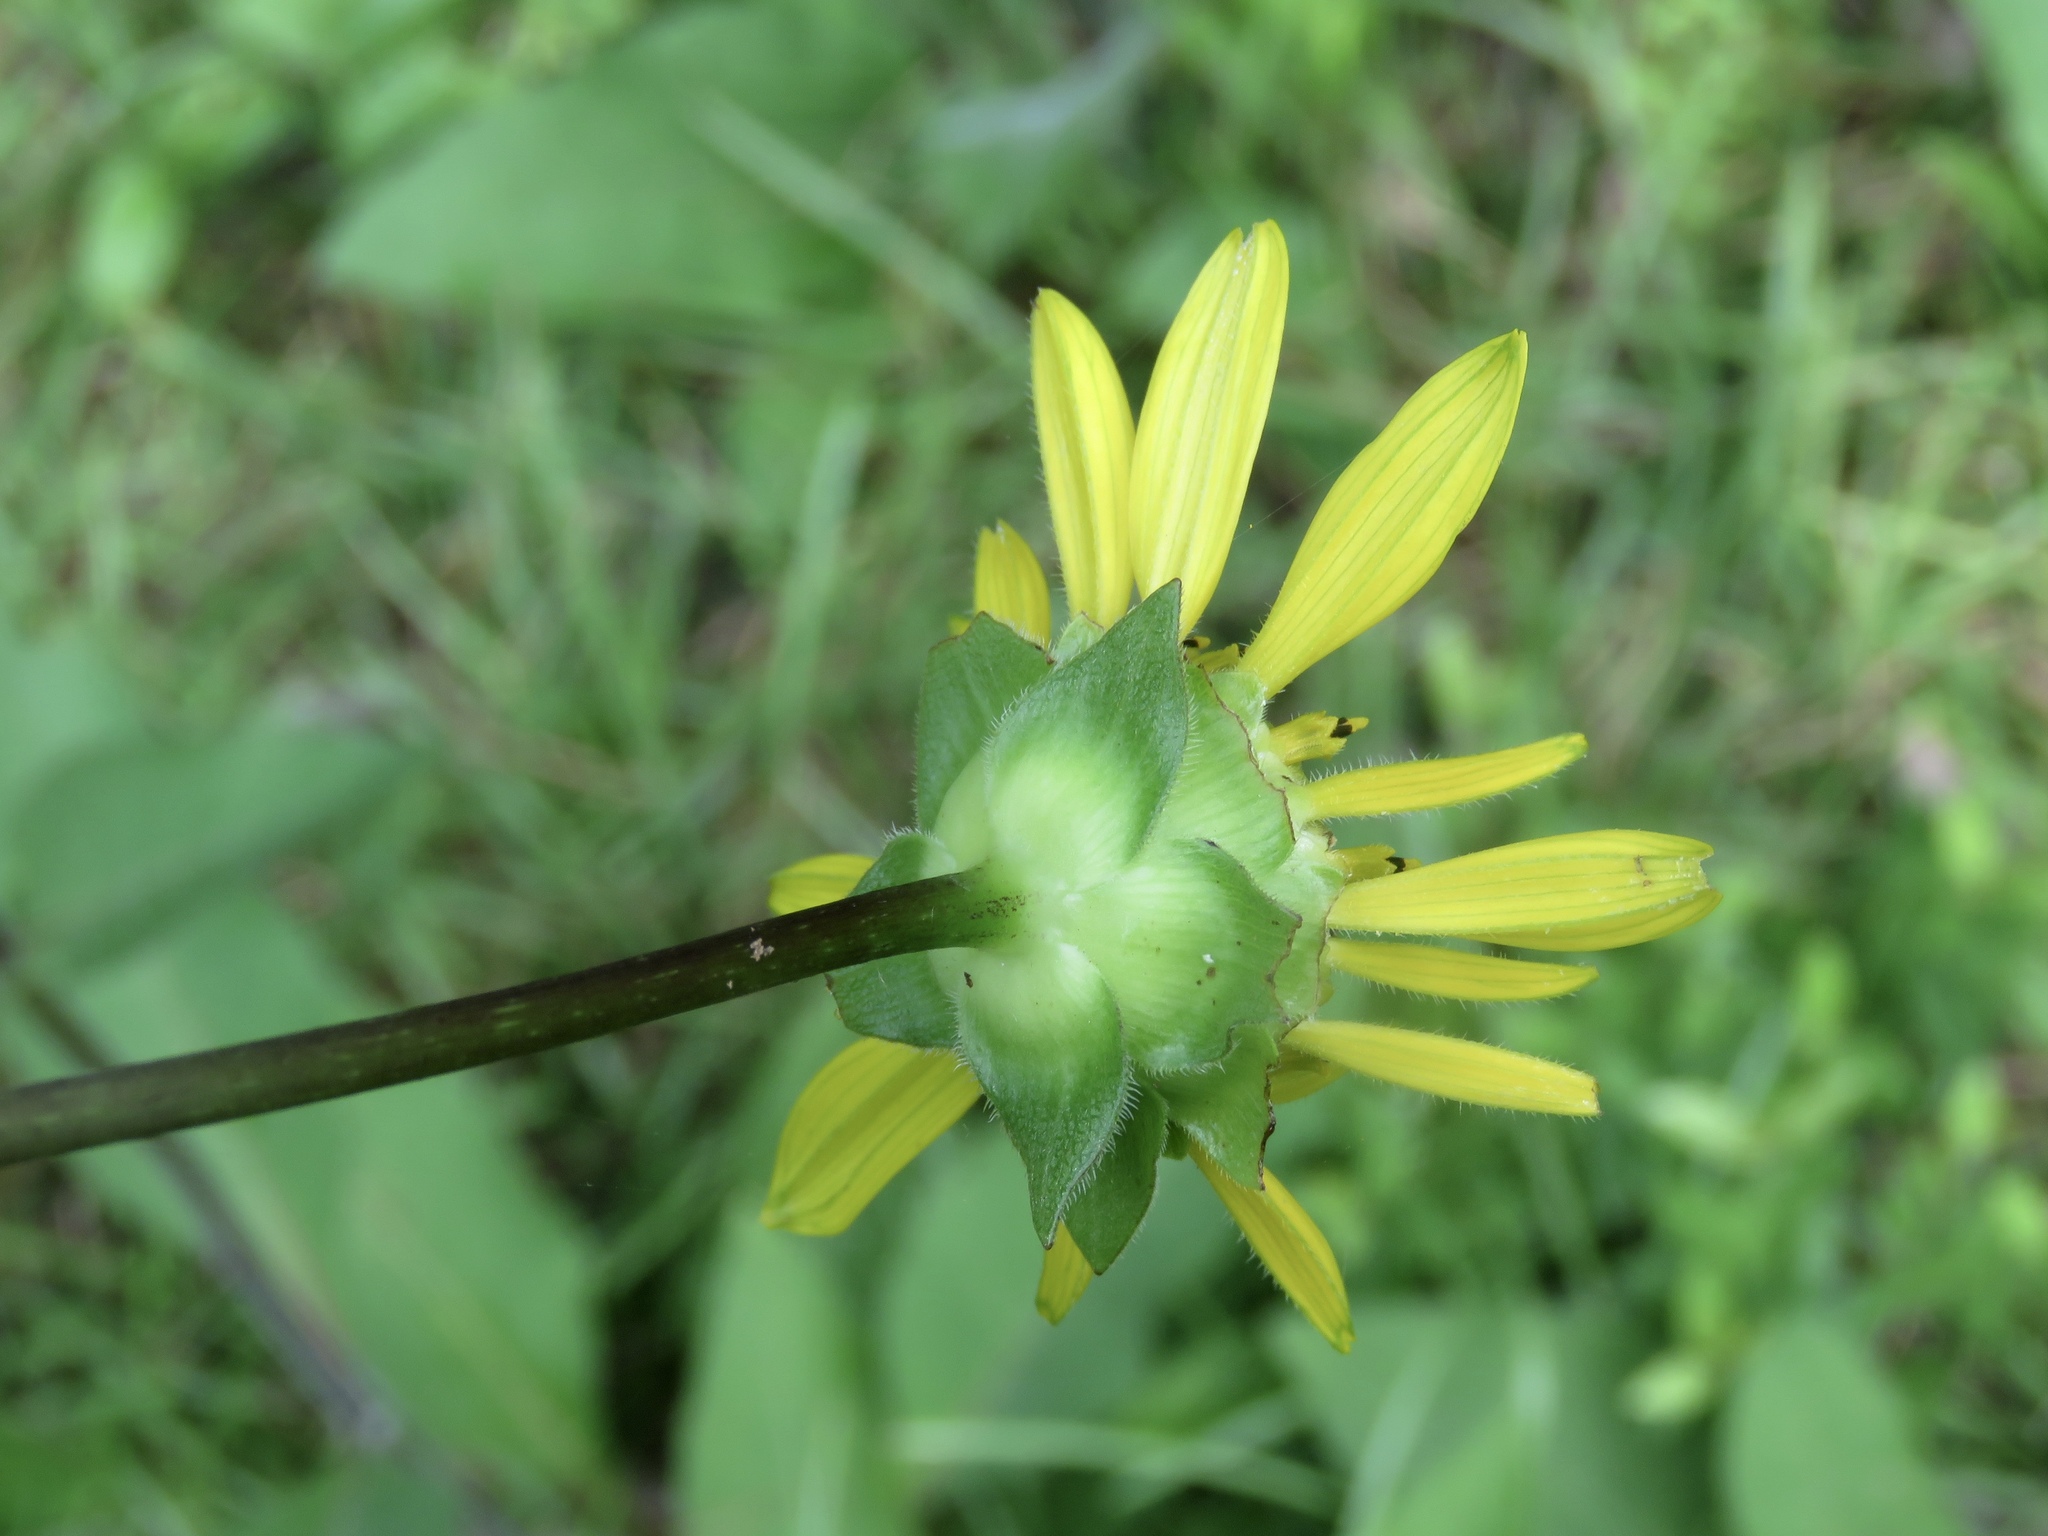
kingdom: Plantae
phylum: Tracheophyta
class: Magnoliopsida
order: Asterales
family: Asteraceae
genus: Silphium
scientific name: Silphium radula
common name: Roughleaf rosinweed
